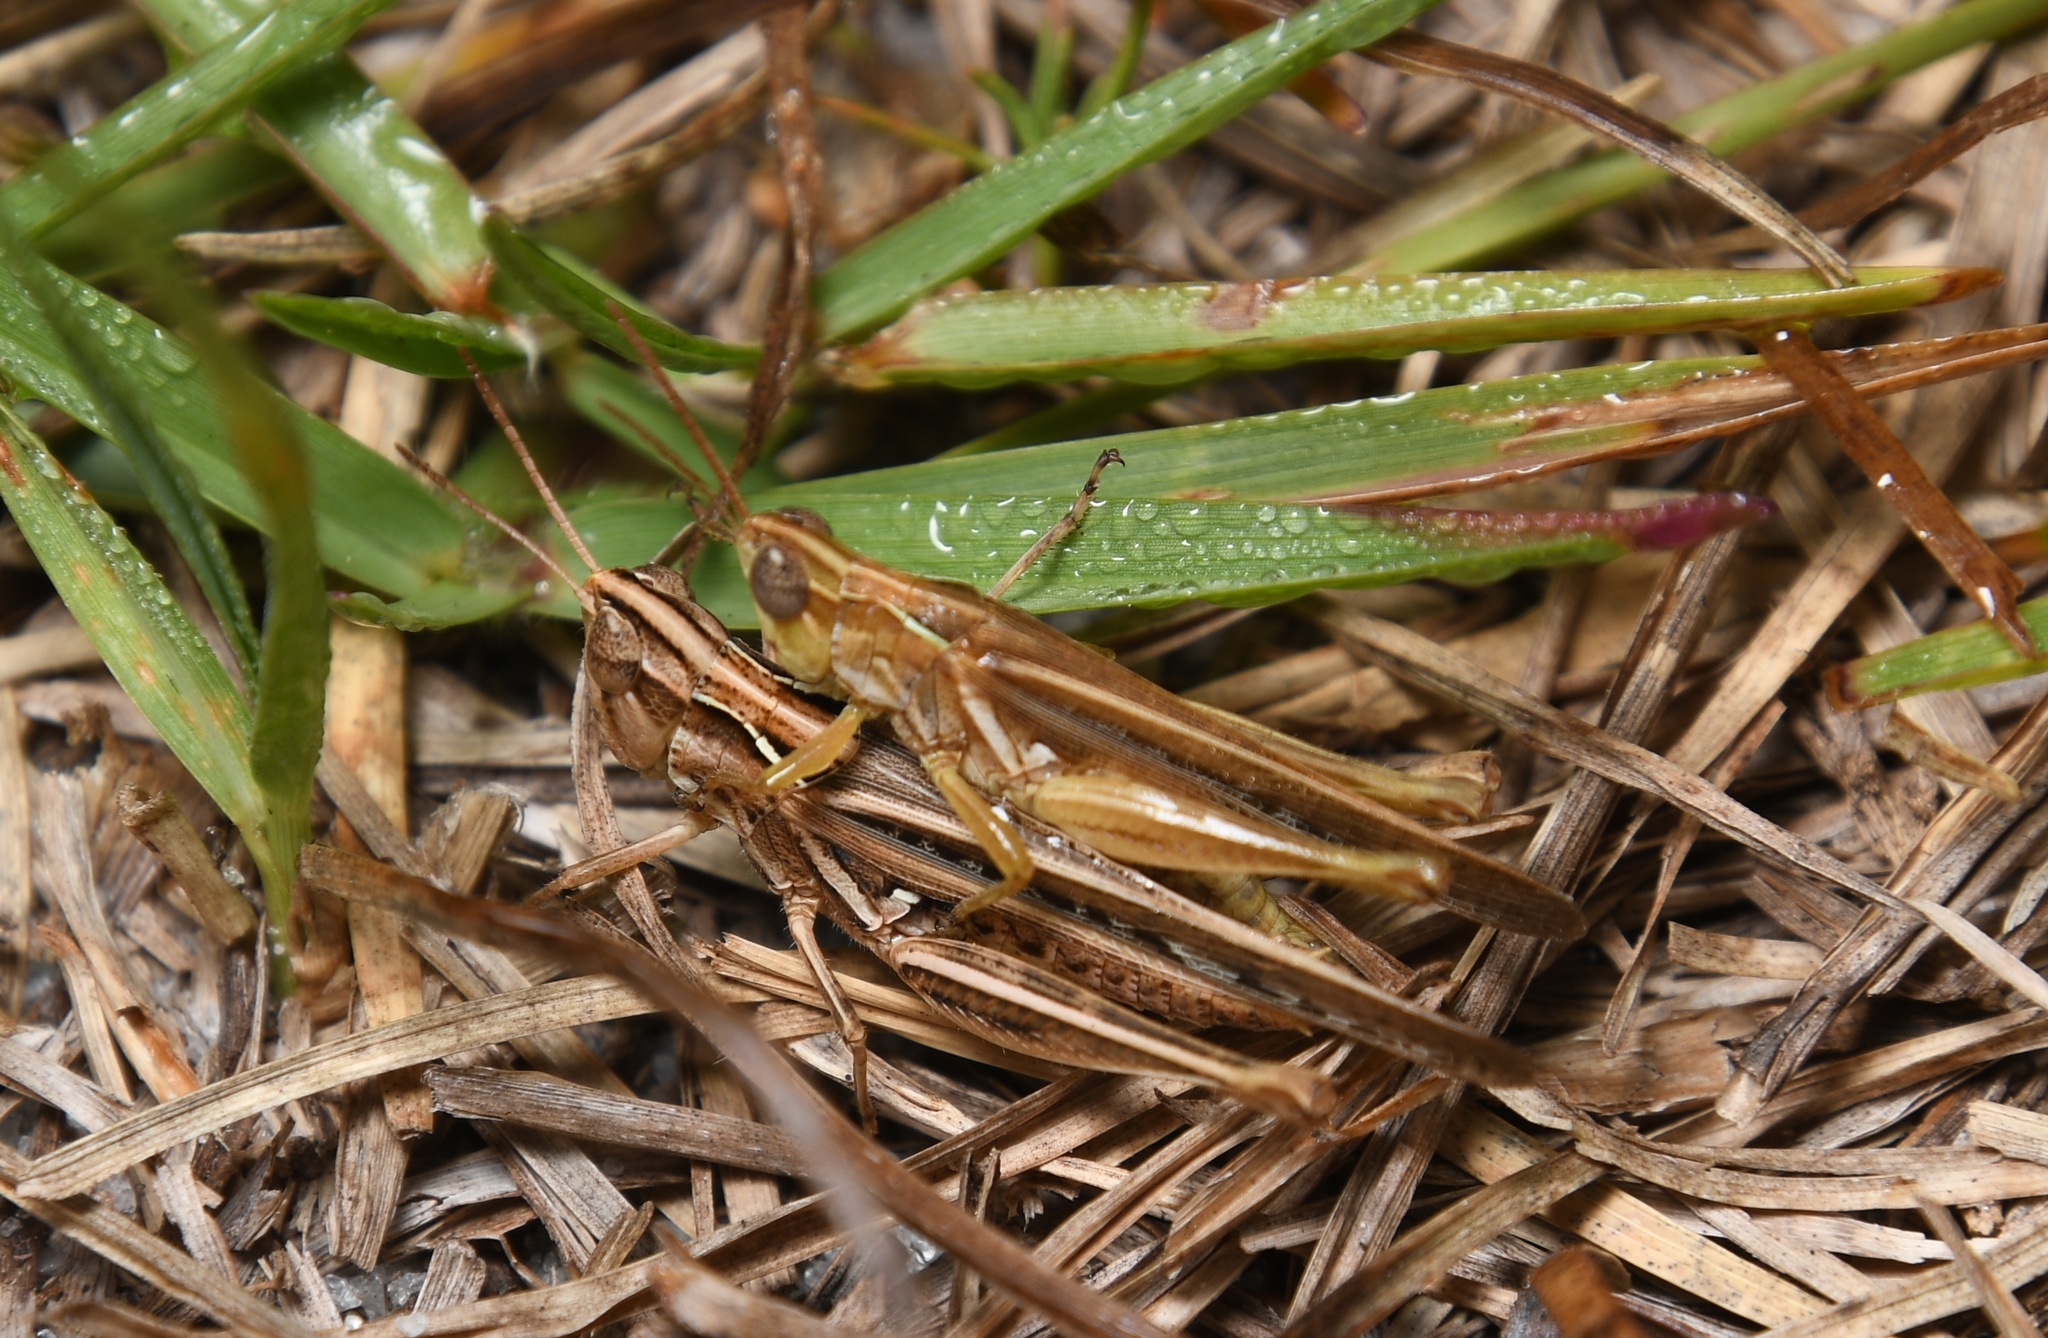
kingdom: Animalia
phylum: Arthropoda
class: Insecta
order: Orthoptera
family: Acrididae
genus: Orphulella
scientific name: Orphulella pelidna
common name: Spotted-wing grasshopper
